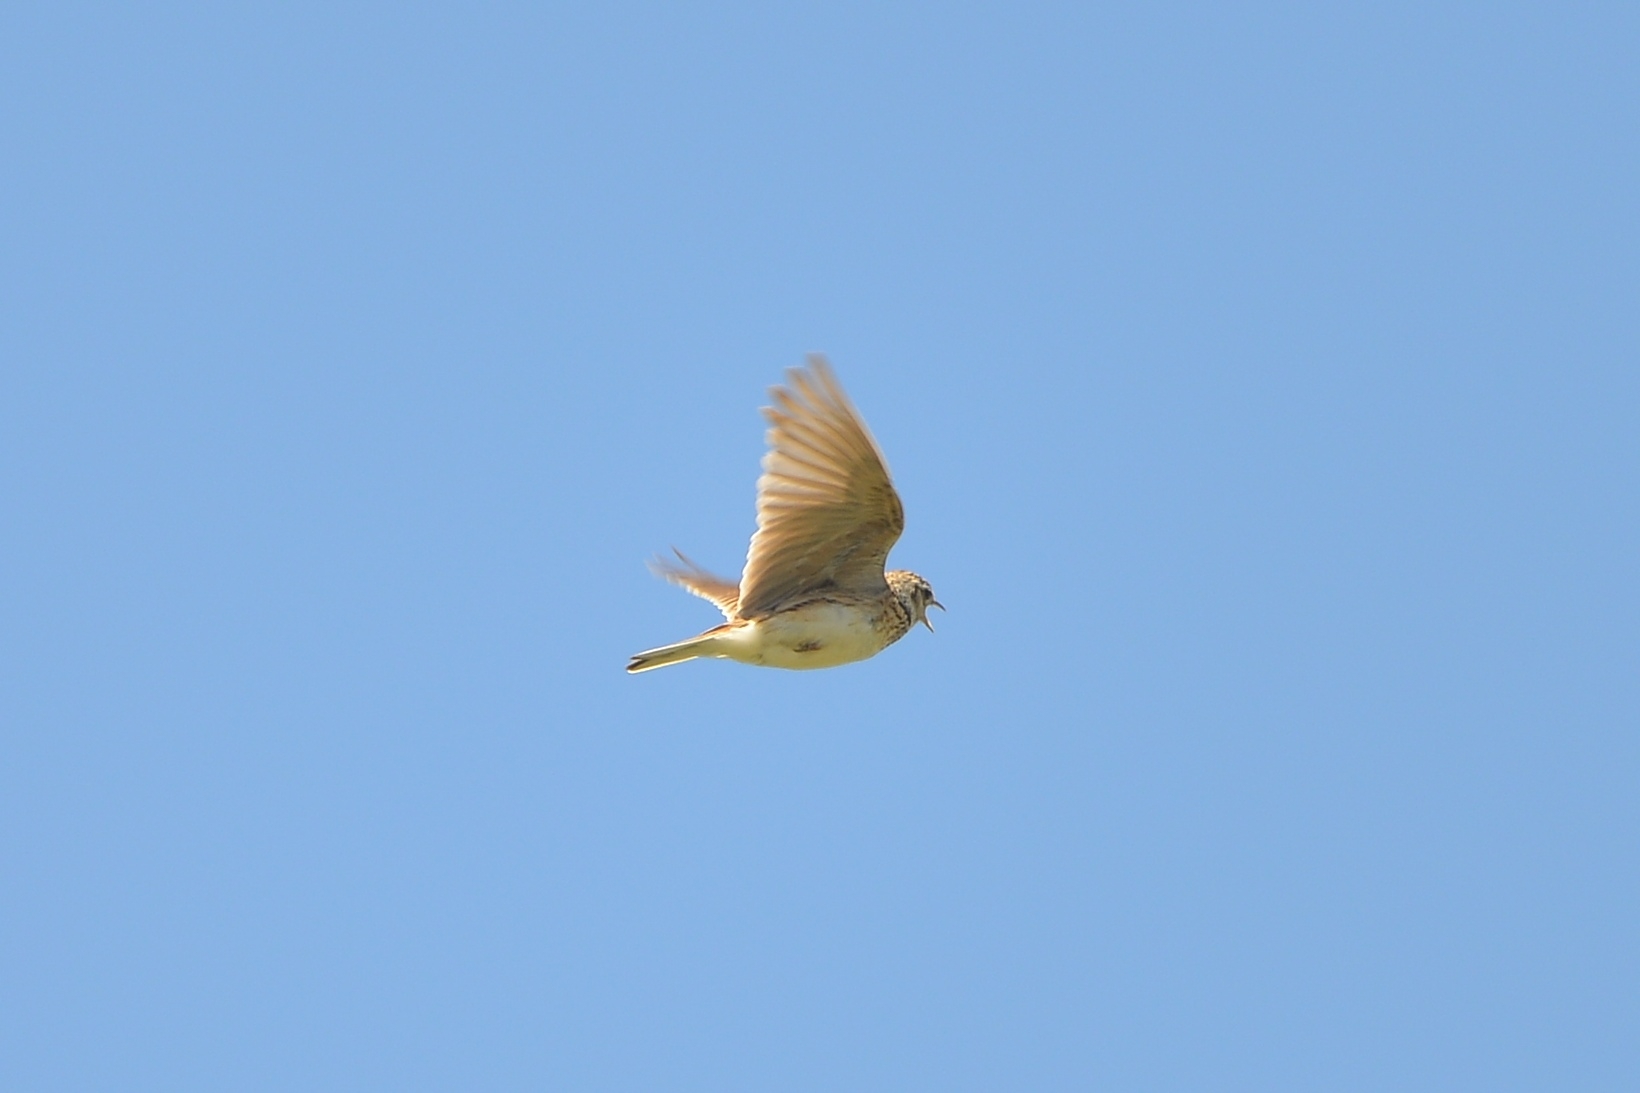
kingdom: Animalia
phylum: Chordata
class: Aves
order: Passeriformes
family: Alaudidae
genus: Alauda
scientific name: Alauda arvensis
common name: Eurasian skylark
